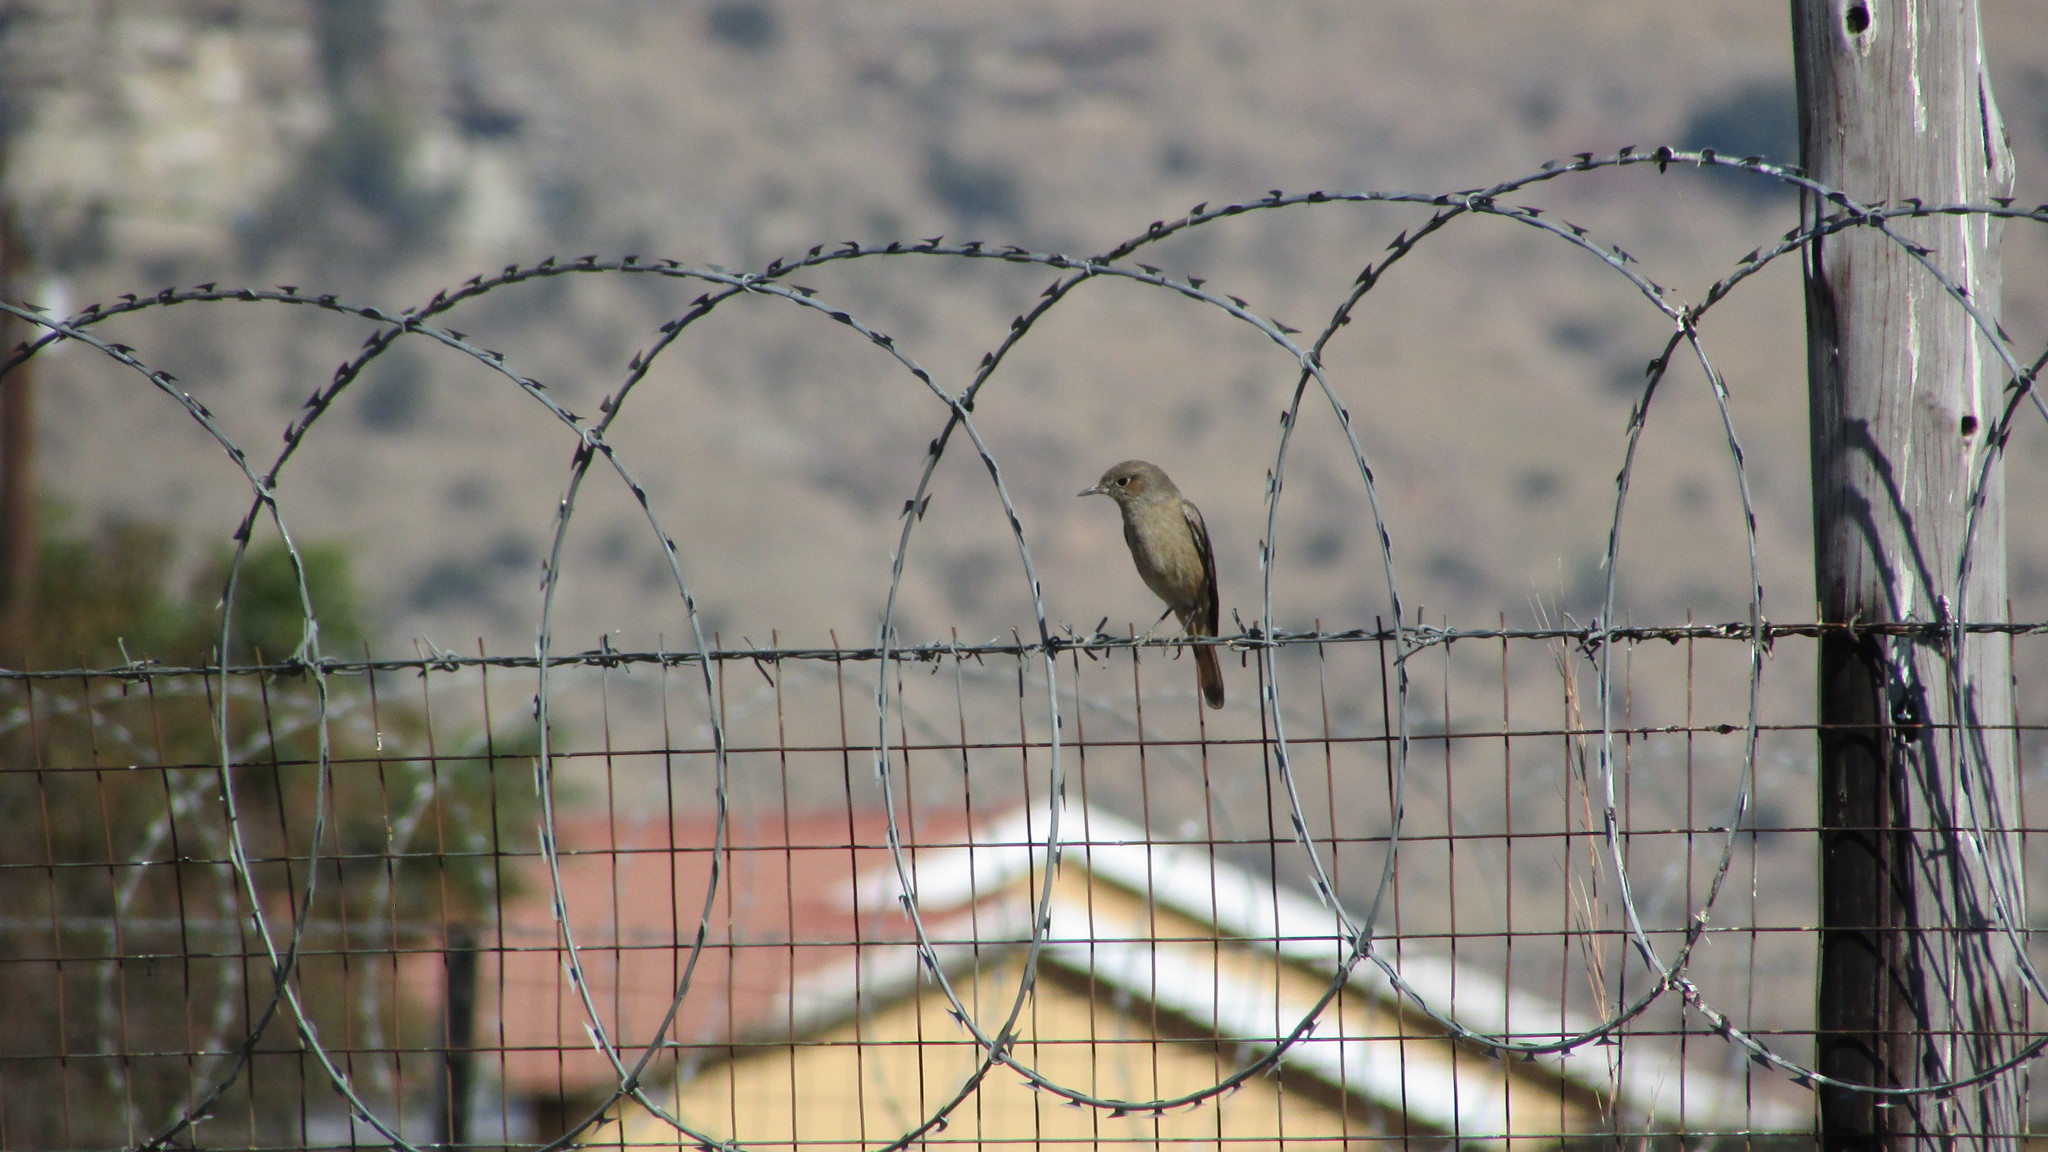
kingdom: Animalia
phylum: Chordata
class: Aves
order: Passeriformes
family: Muscicapidae
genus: Oenanthe
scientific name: Oenanthe familiaris
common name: Familiar chat
